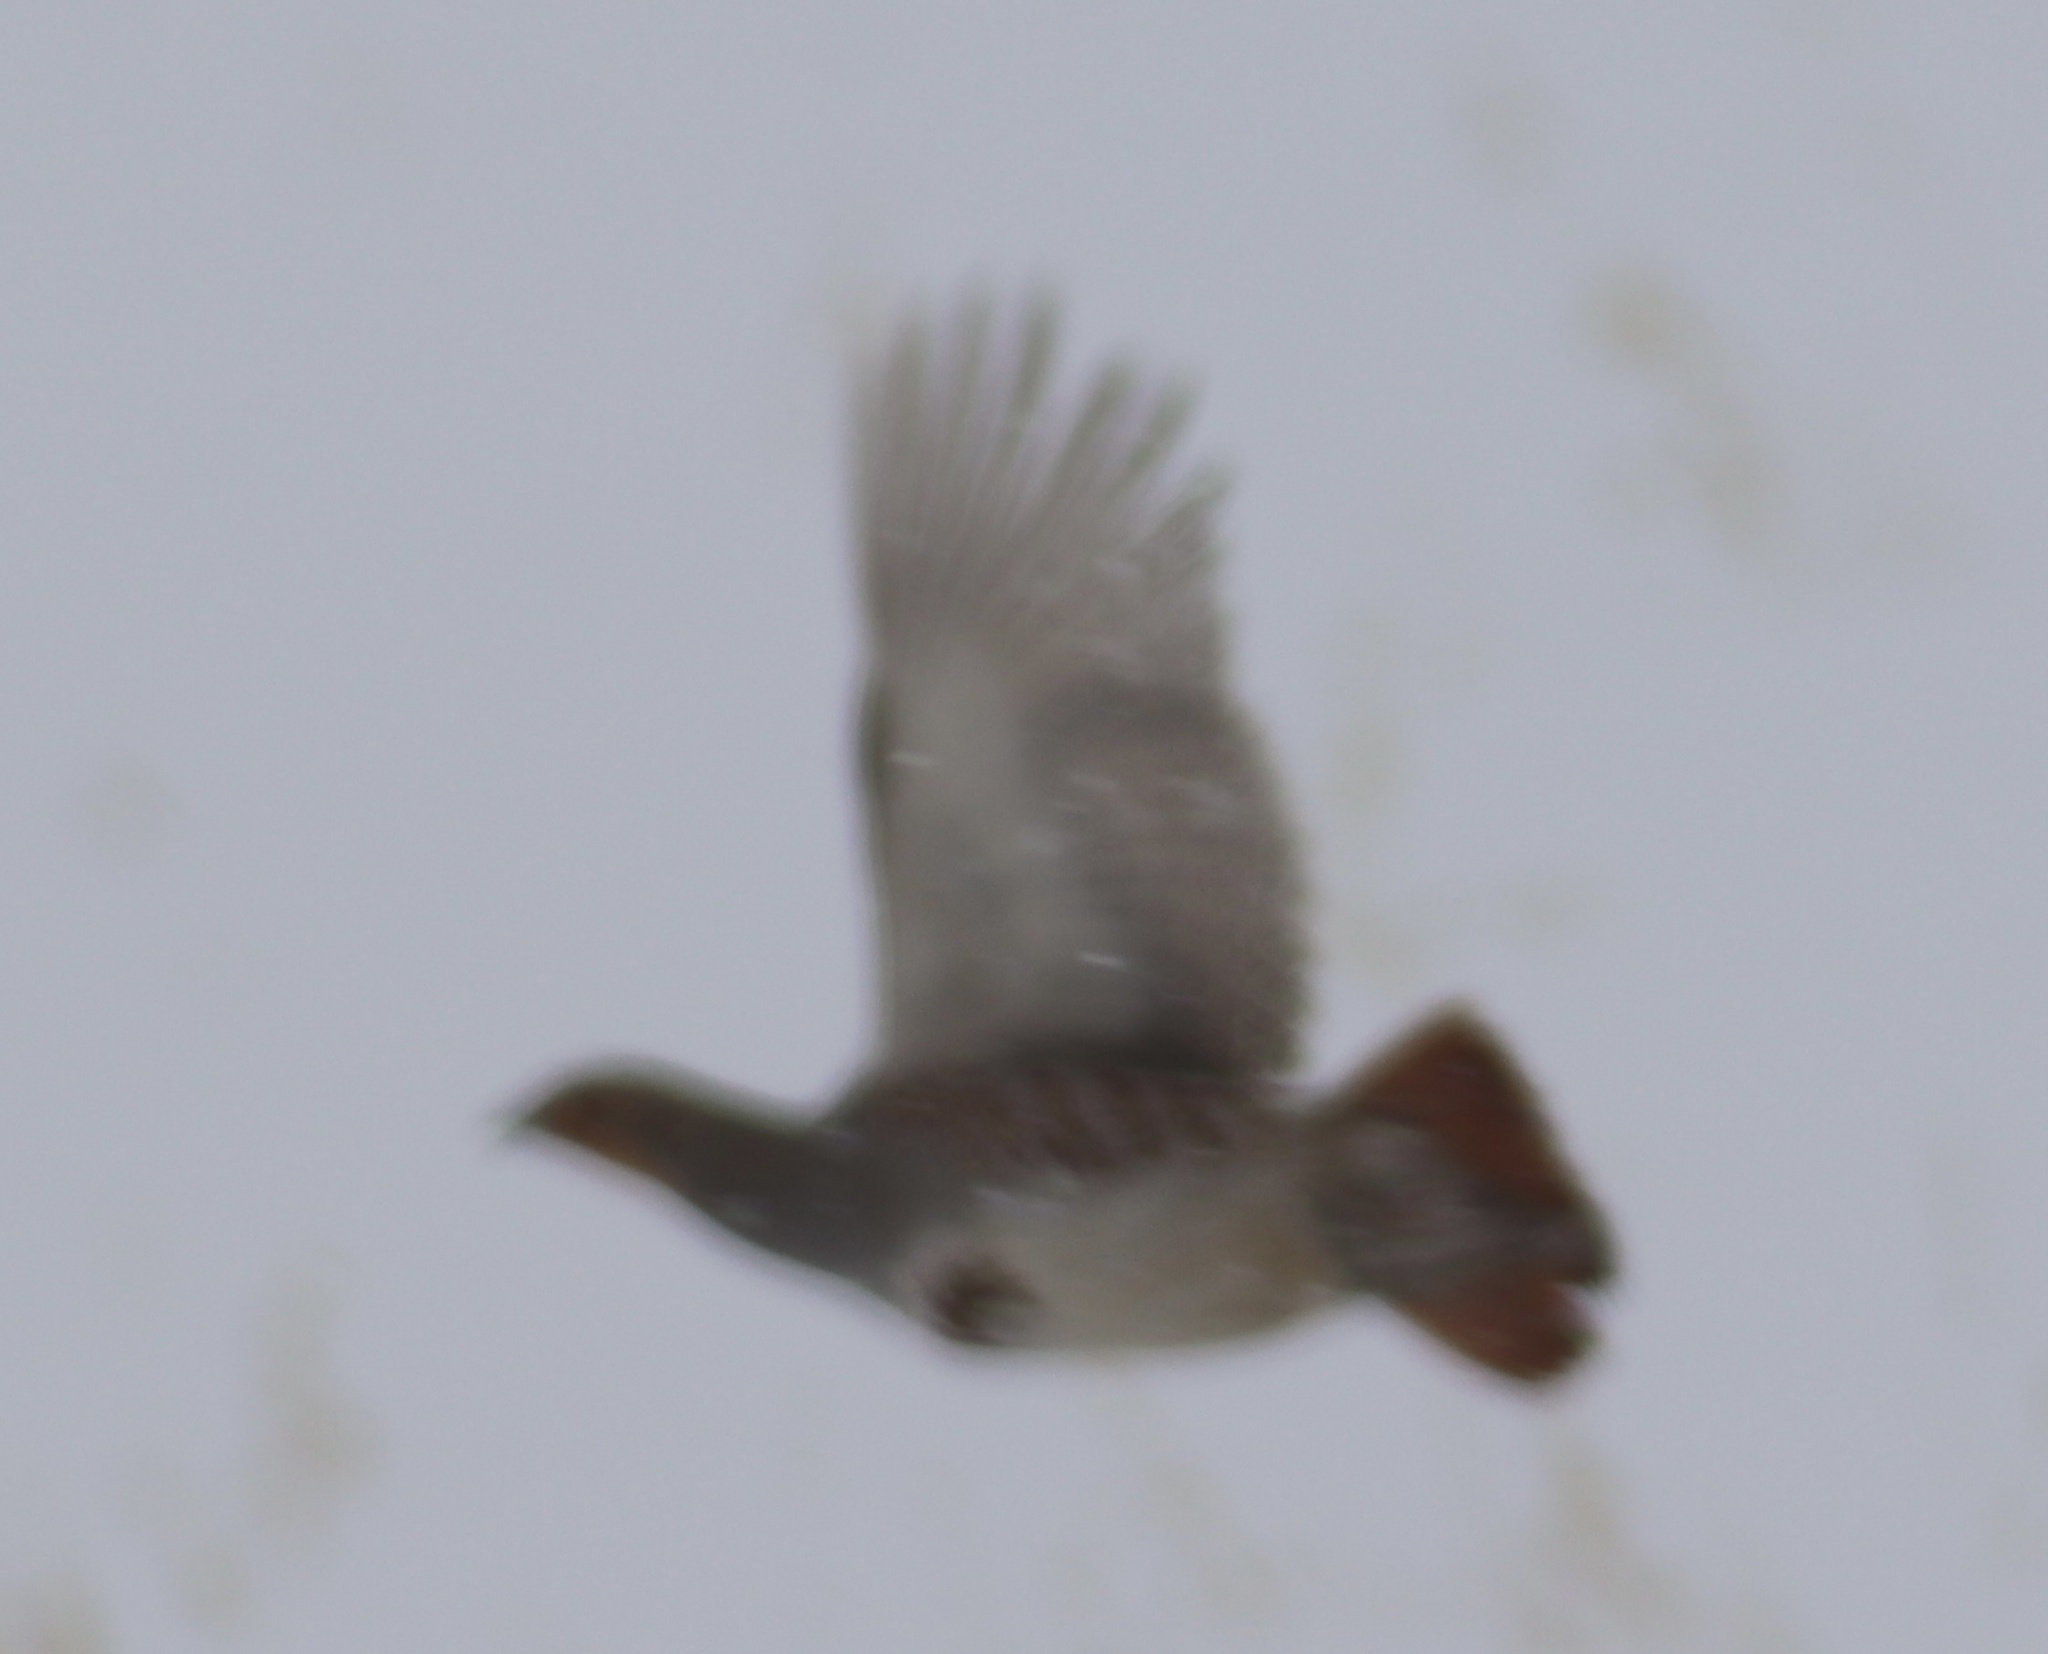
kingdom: Animalia
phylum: Chordata
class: Aves
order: Galliformes
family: Phasianidae
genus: Perdix
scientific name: Perdix perdix
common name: Grey partridge
